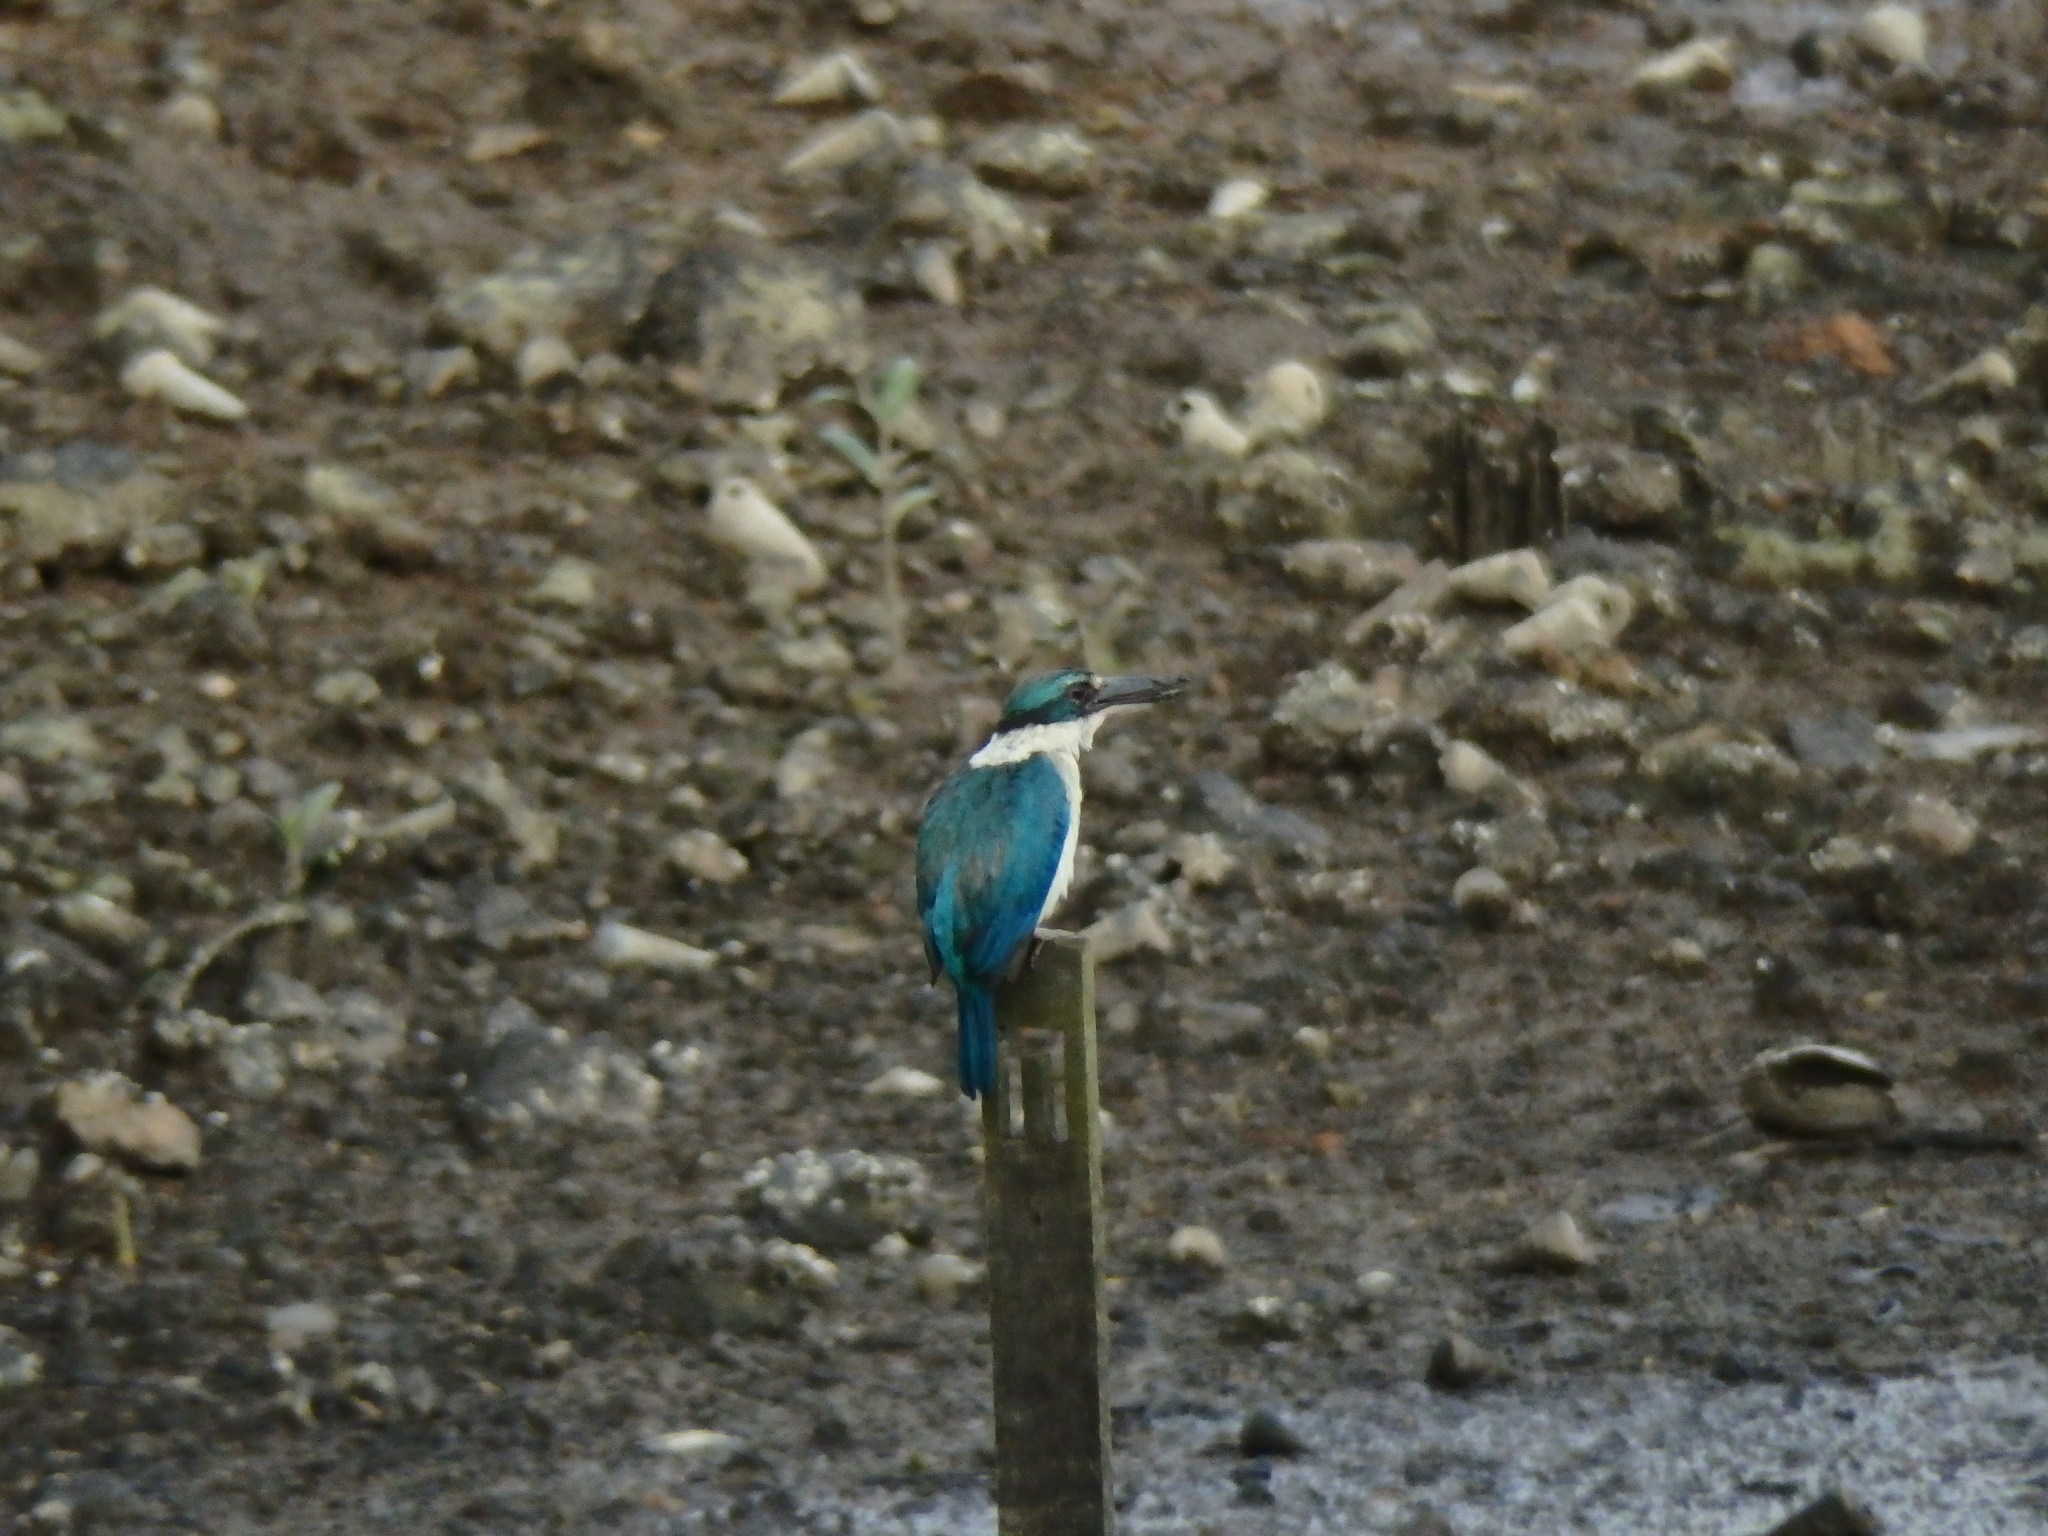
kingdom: Animalia
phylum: Chordata
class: Aves
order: Coraciiformes
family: Alcedinidae
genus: Todiramphus
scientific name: Todiramphus chloris
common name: Collared kingfisher
